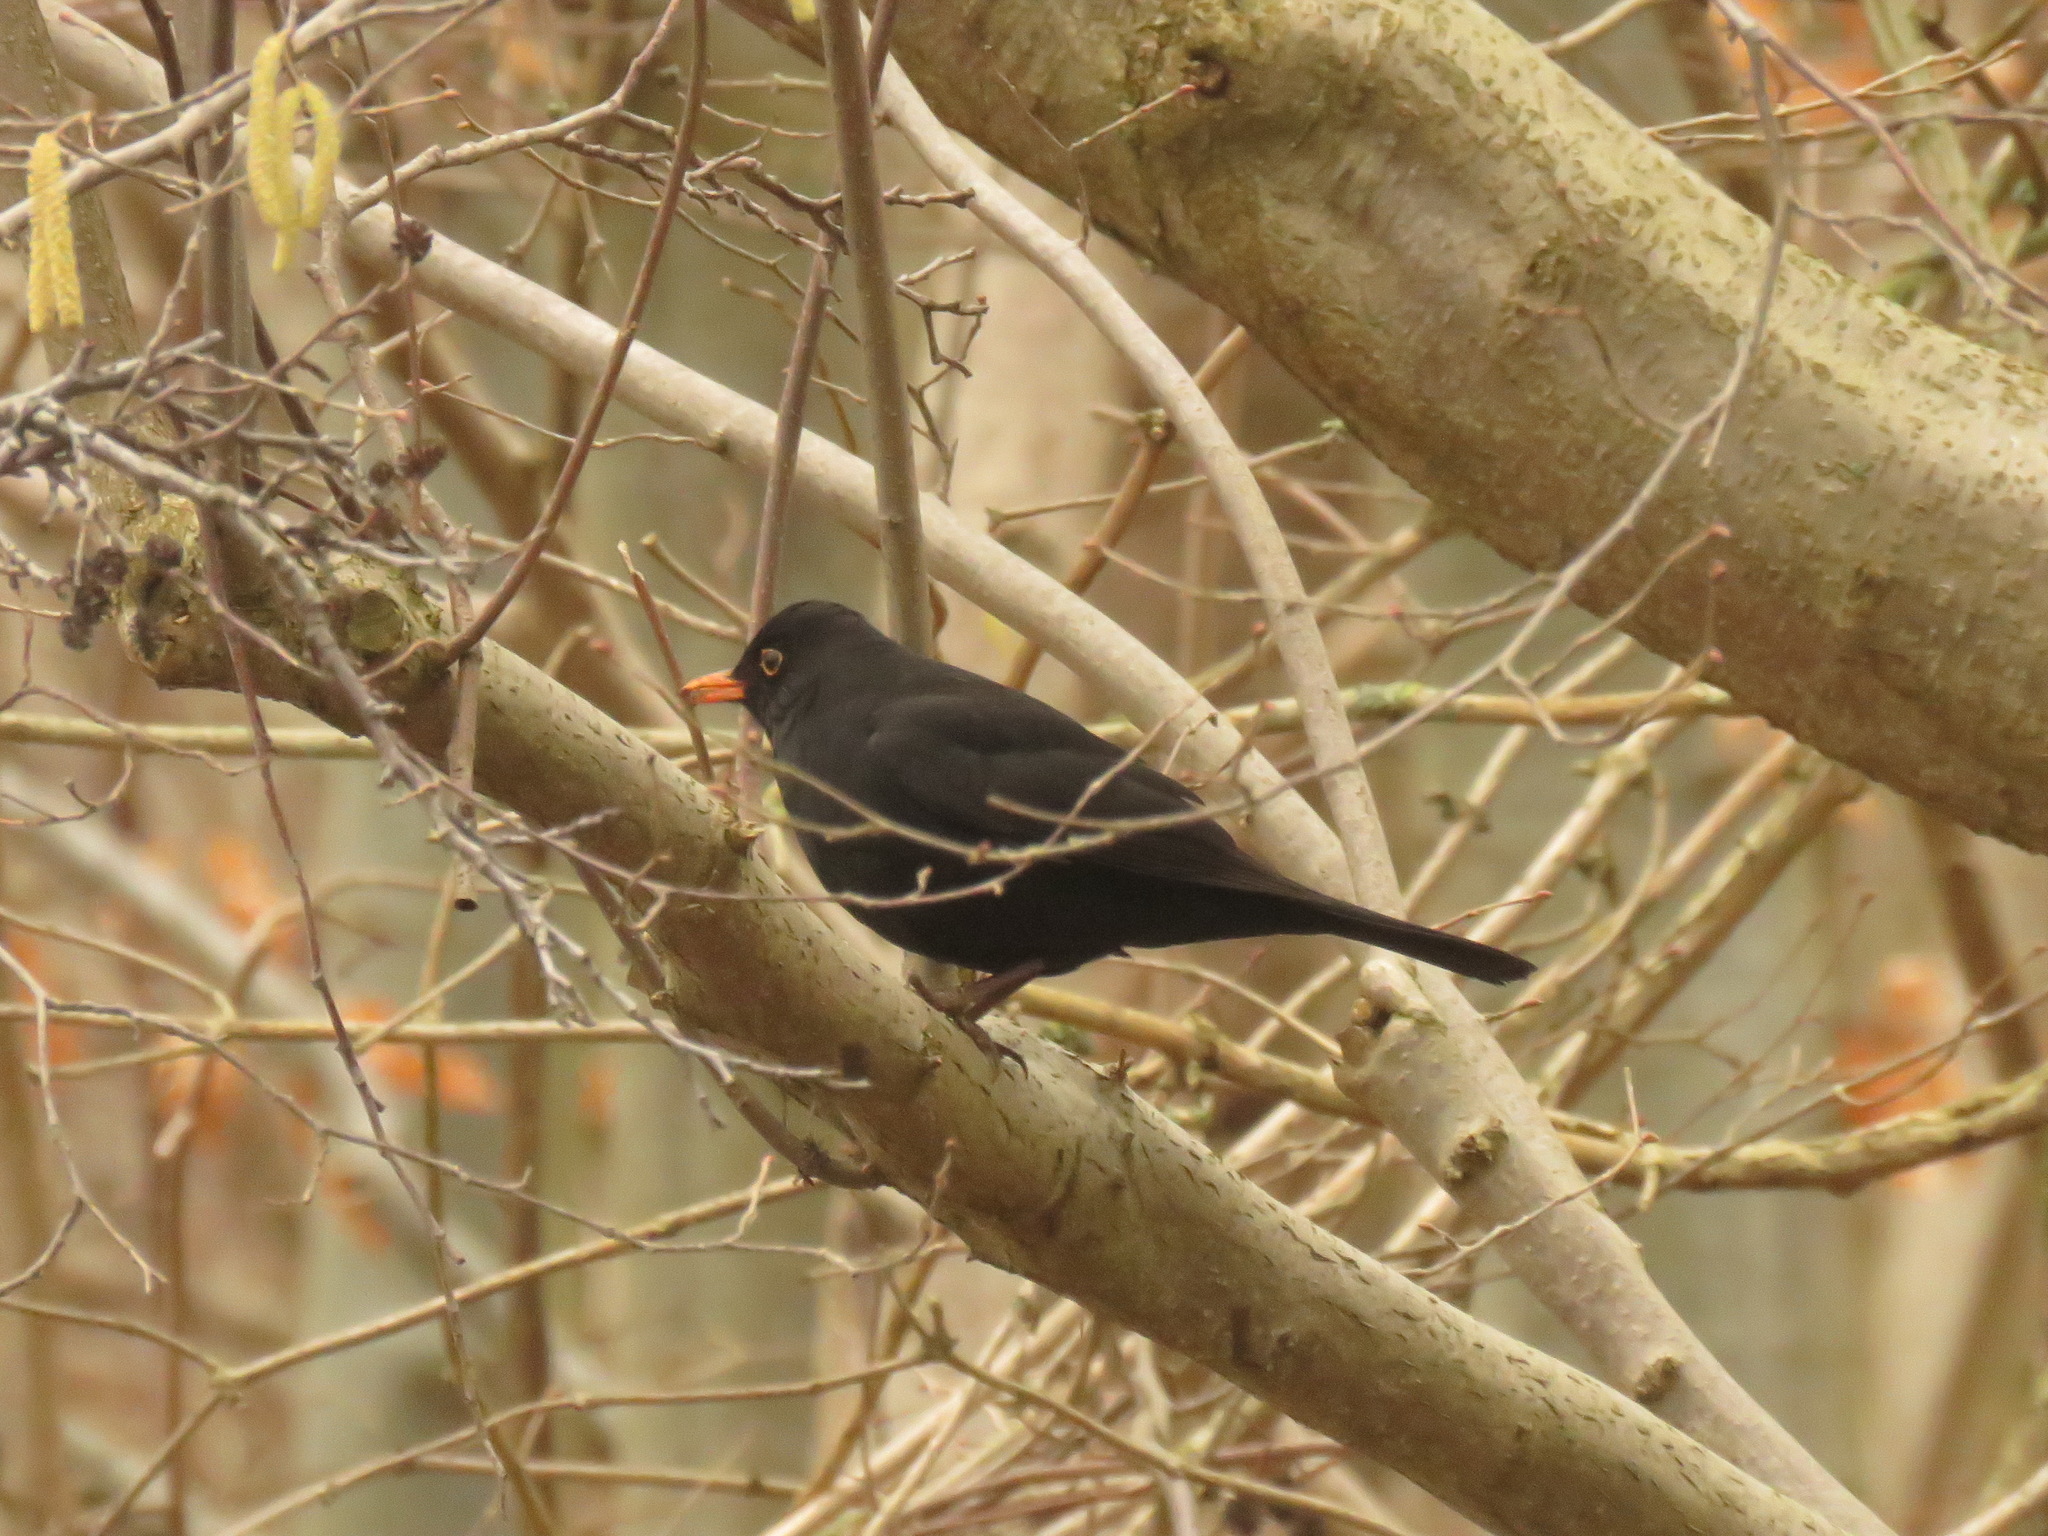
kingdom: Animalia
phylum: Chordata
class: Aves
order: Passeriformes
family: Turdidae
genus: Turdus
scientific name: Turdus merula
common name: Common blackbird
